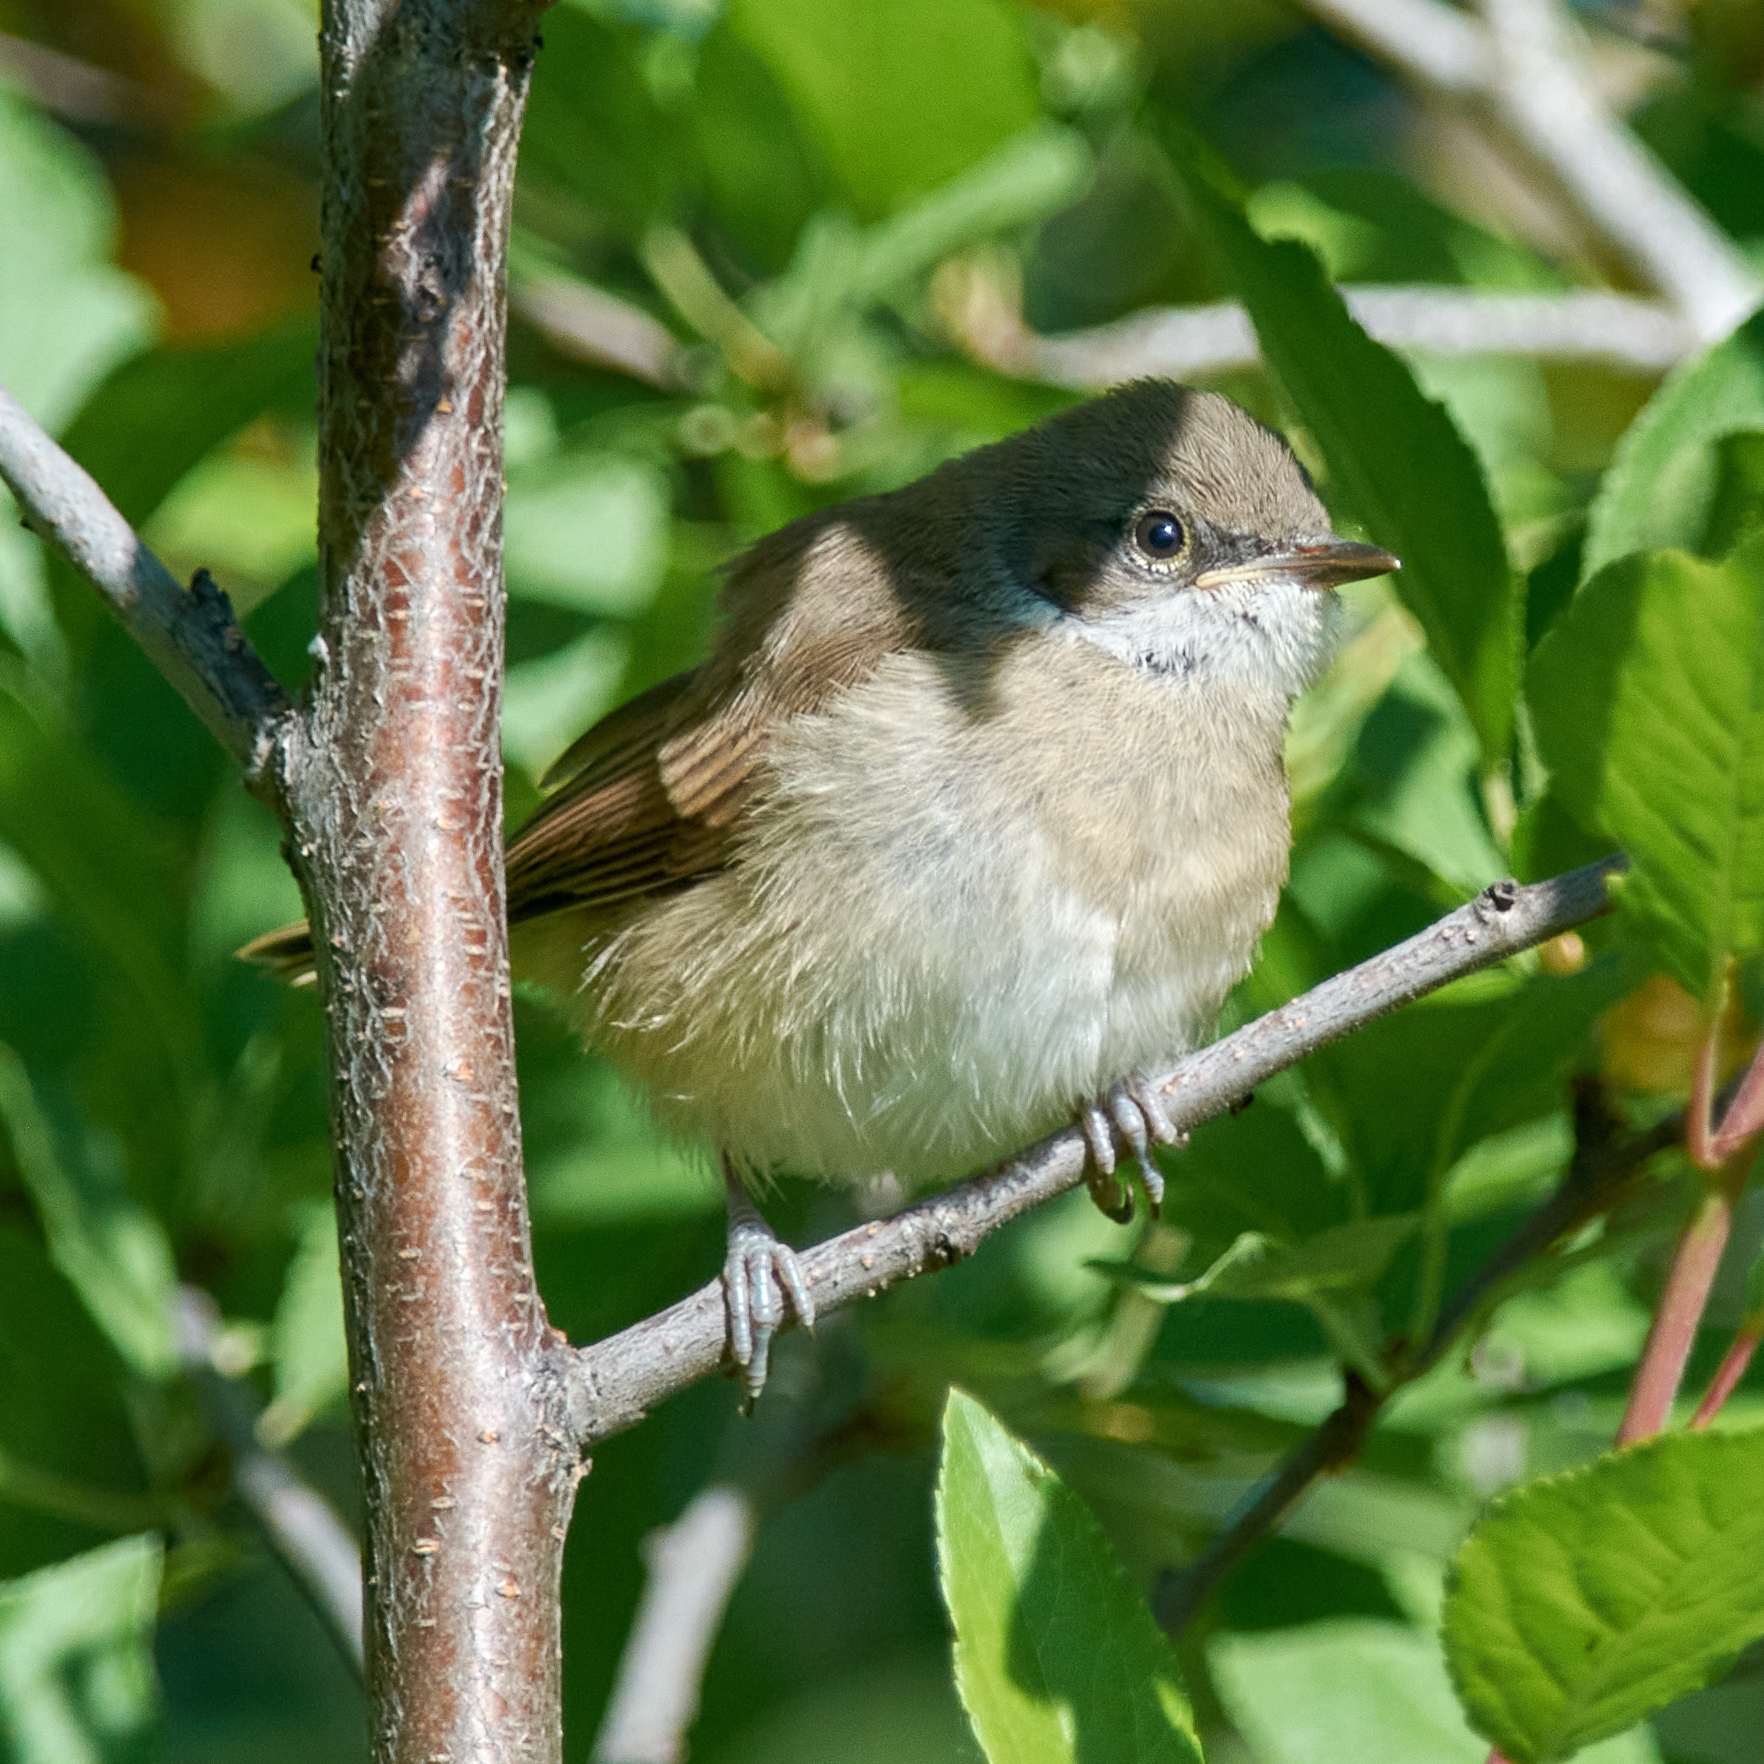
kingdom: Animalia
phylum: Chordata
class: Aves
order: Passeriformes
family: Sylviidae
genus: Sylvia
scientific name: Sylvia curruca
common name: Lesser whitethroat
